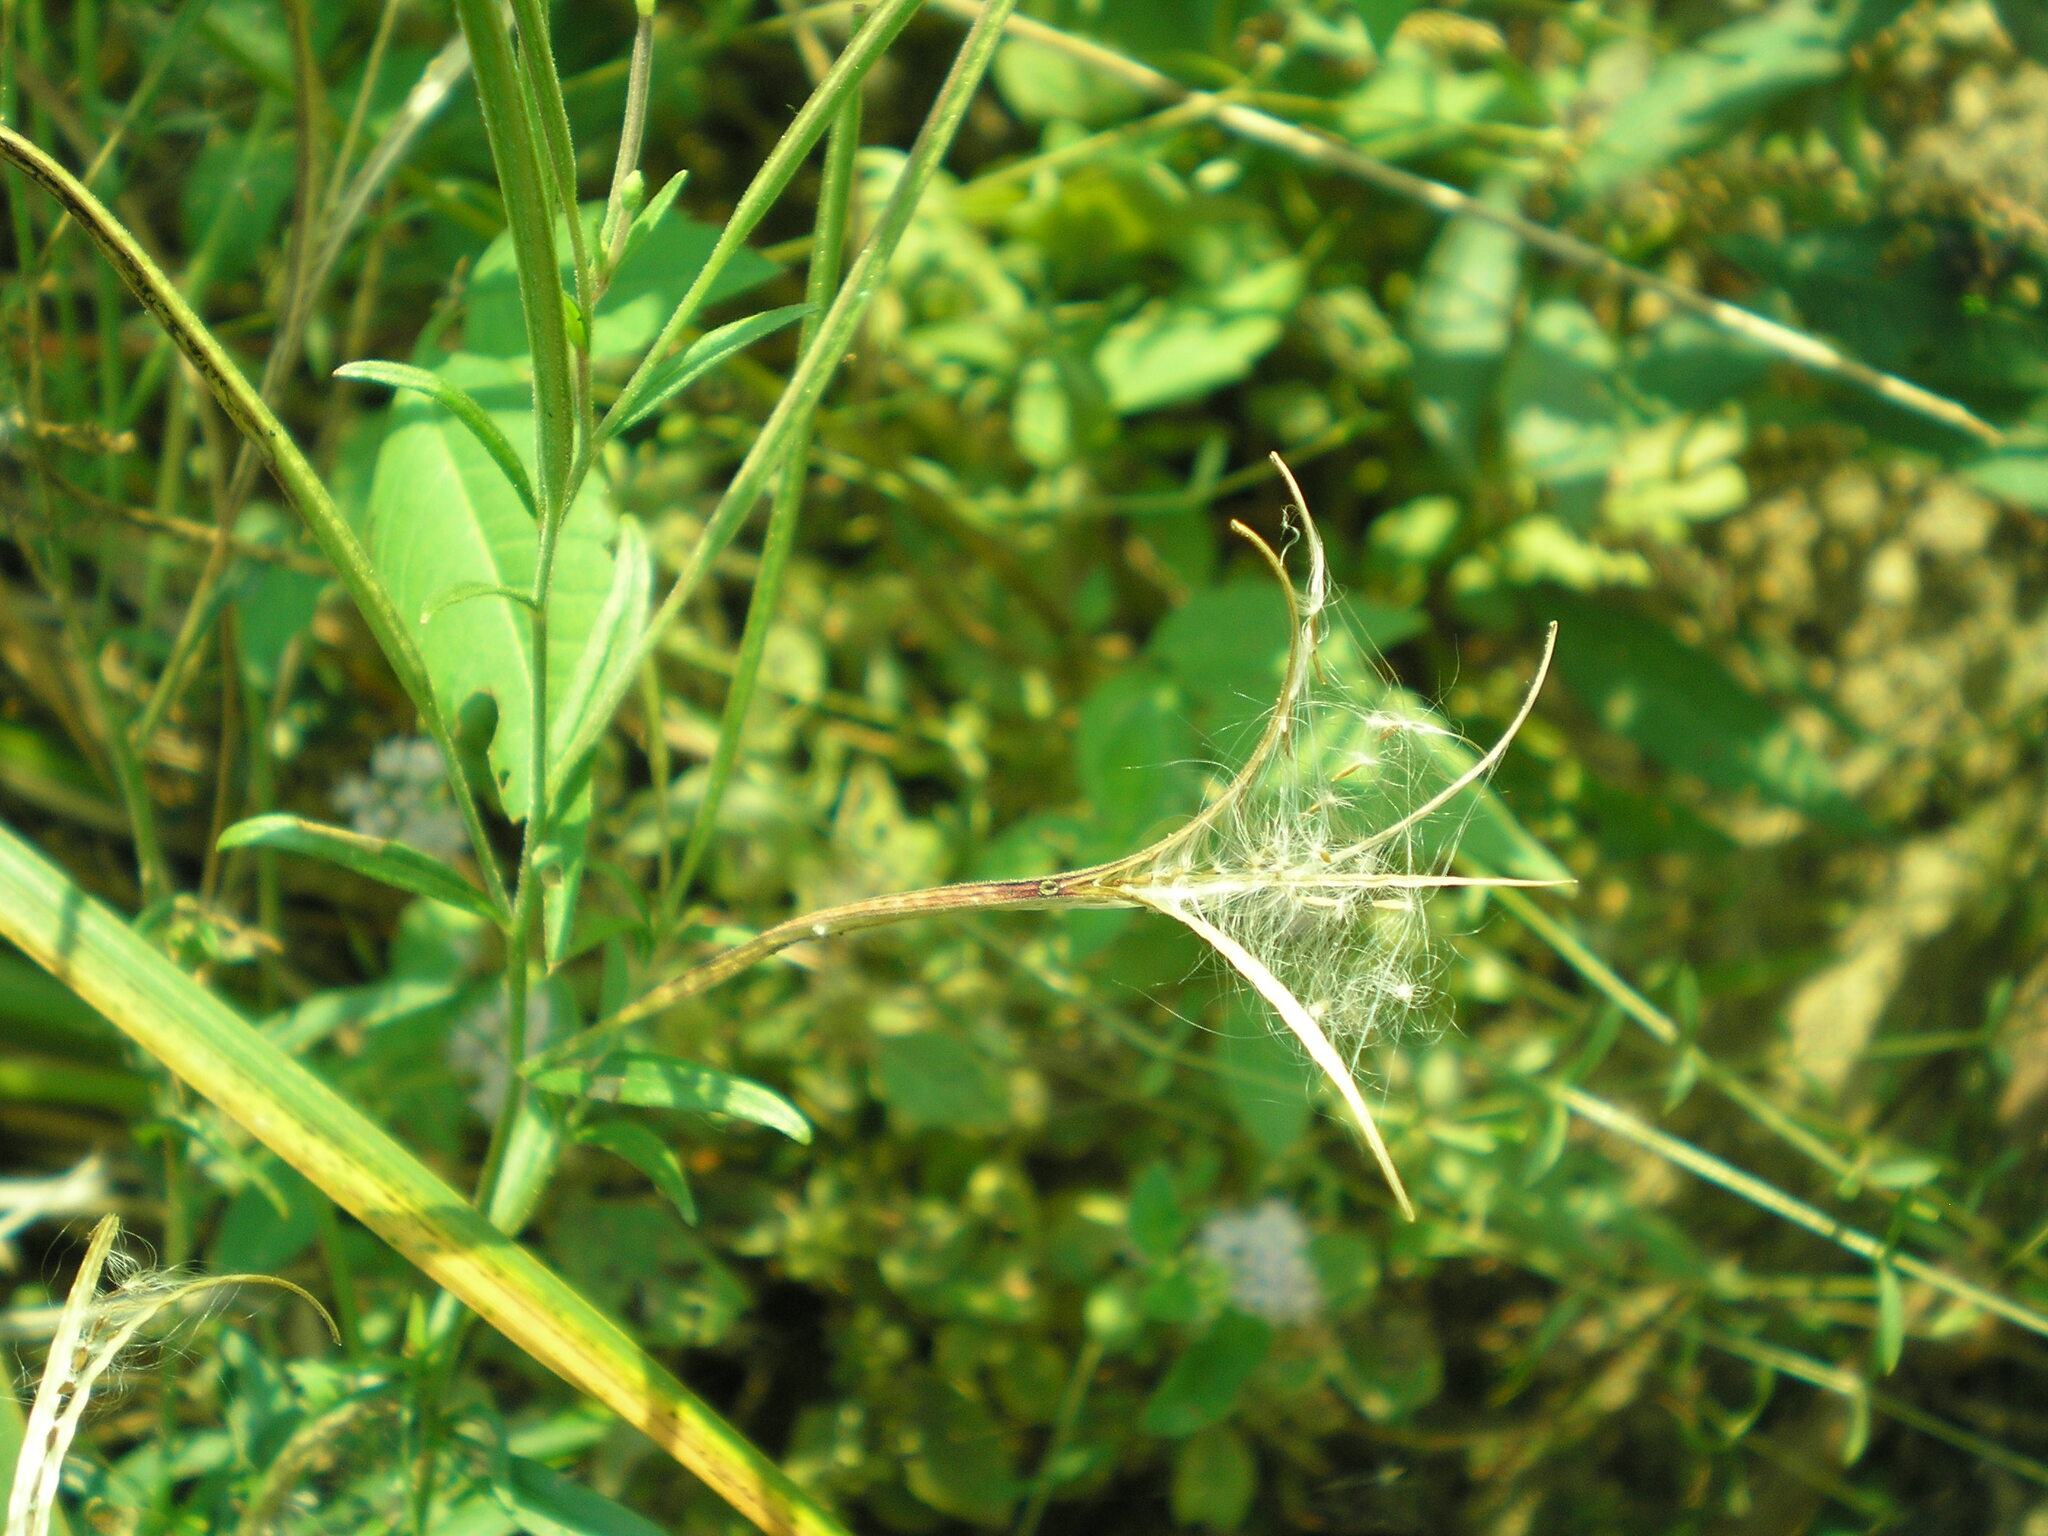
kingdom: Plantae
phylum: Tracheophyta
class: Magnoliopsida
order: Myrtales
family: Onagraceae
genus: Epilobium
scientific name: Epilobium palustre
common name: Marsh willowherb
